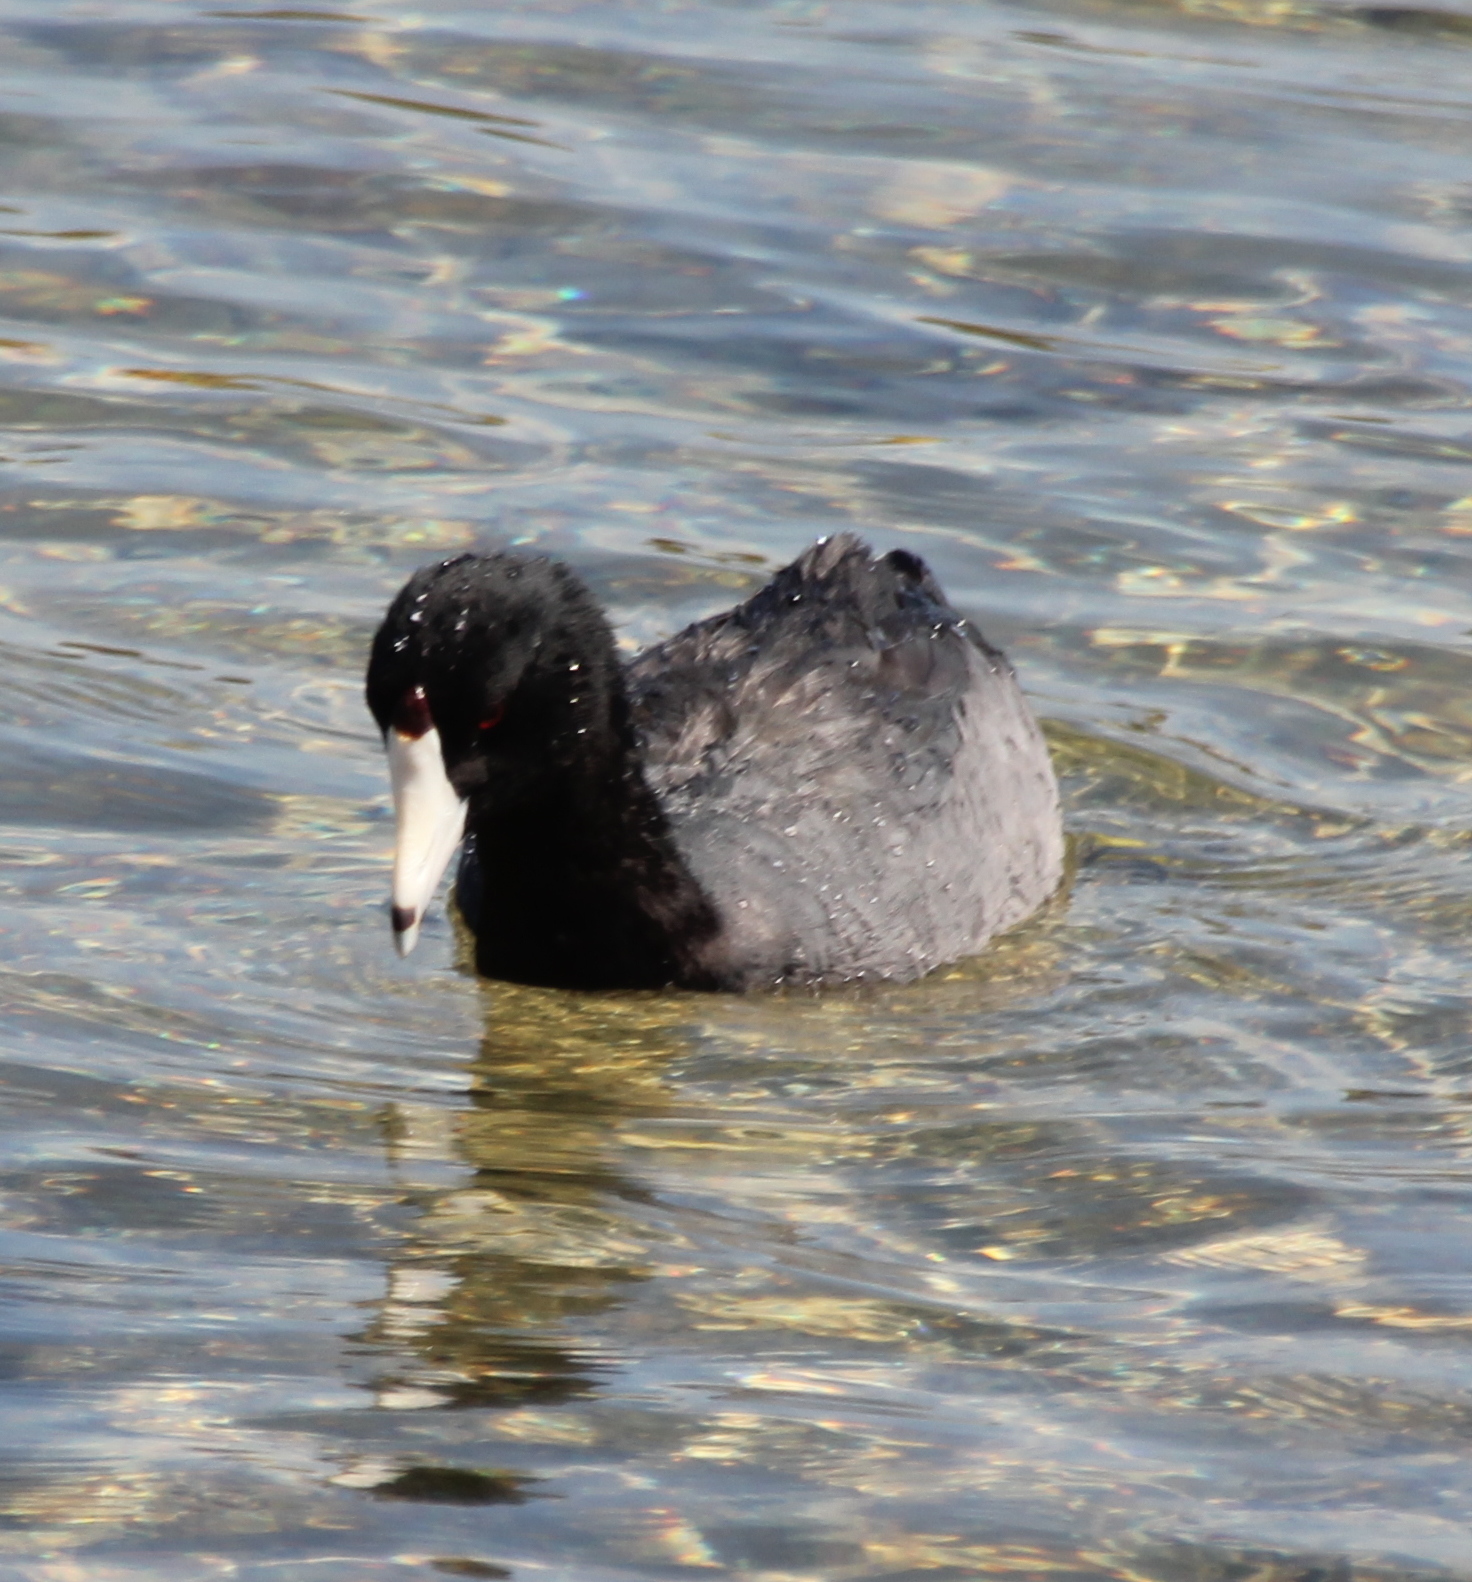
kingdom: Animalia
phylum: Chordata
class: Aves
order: Gruiformes
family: Rallidae
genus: Fulica
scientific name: Fulica americana
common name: American coot
